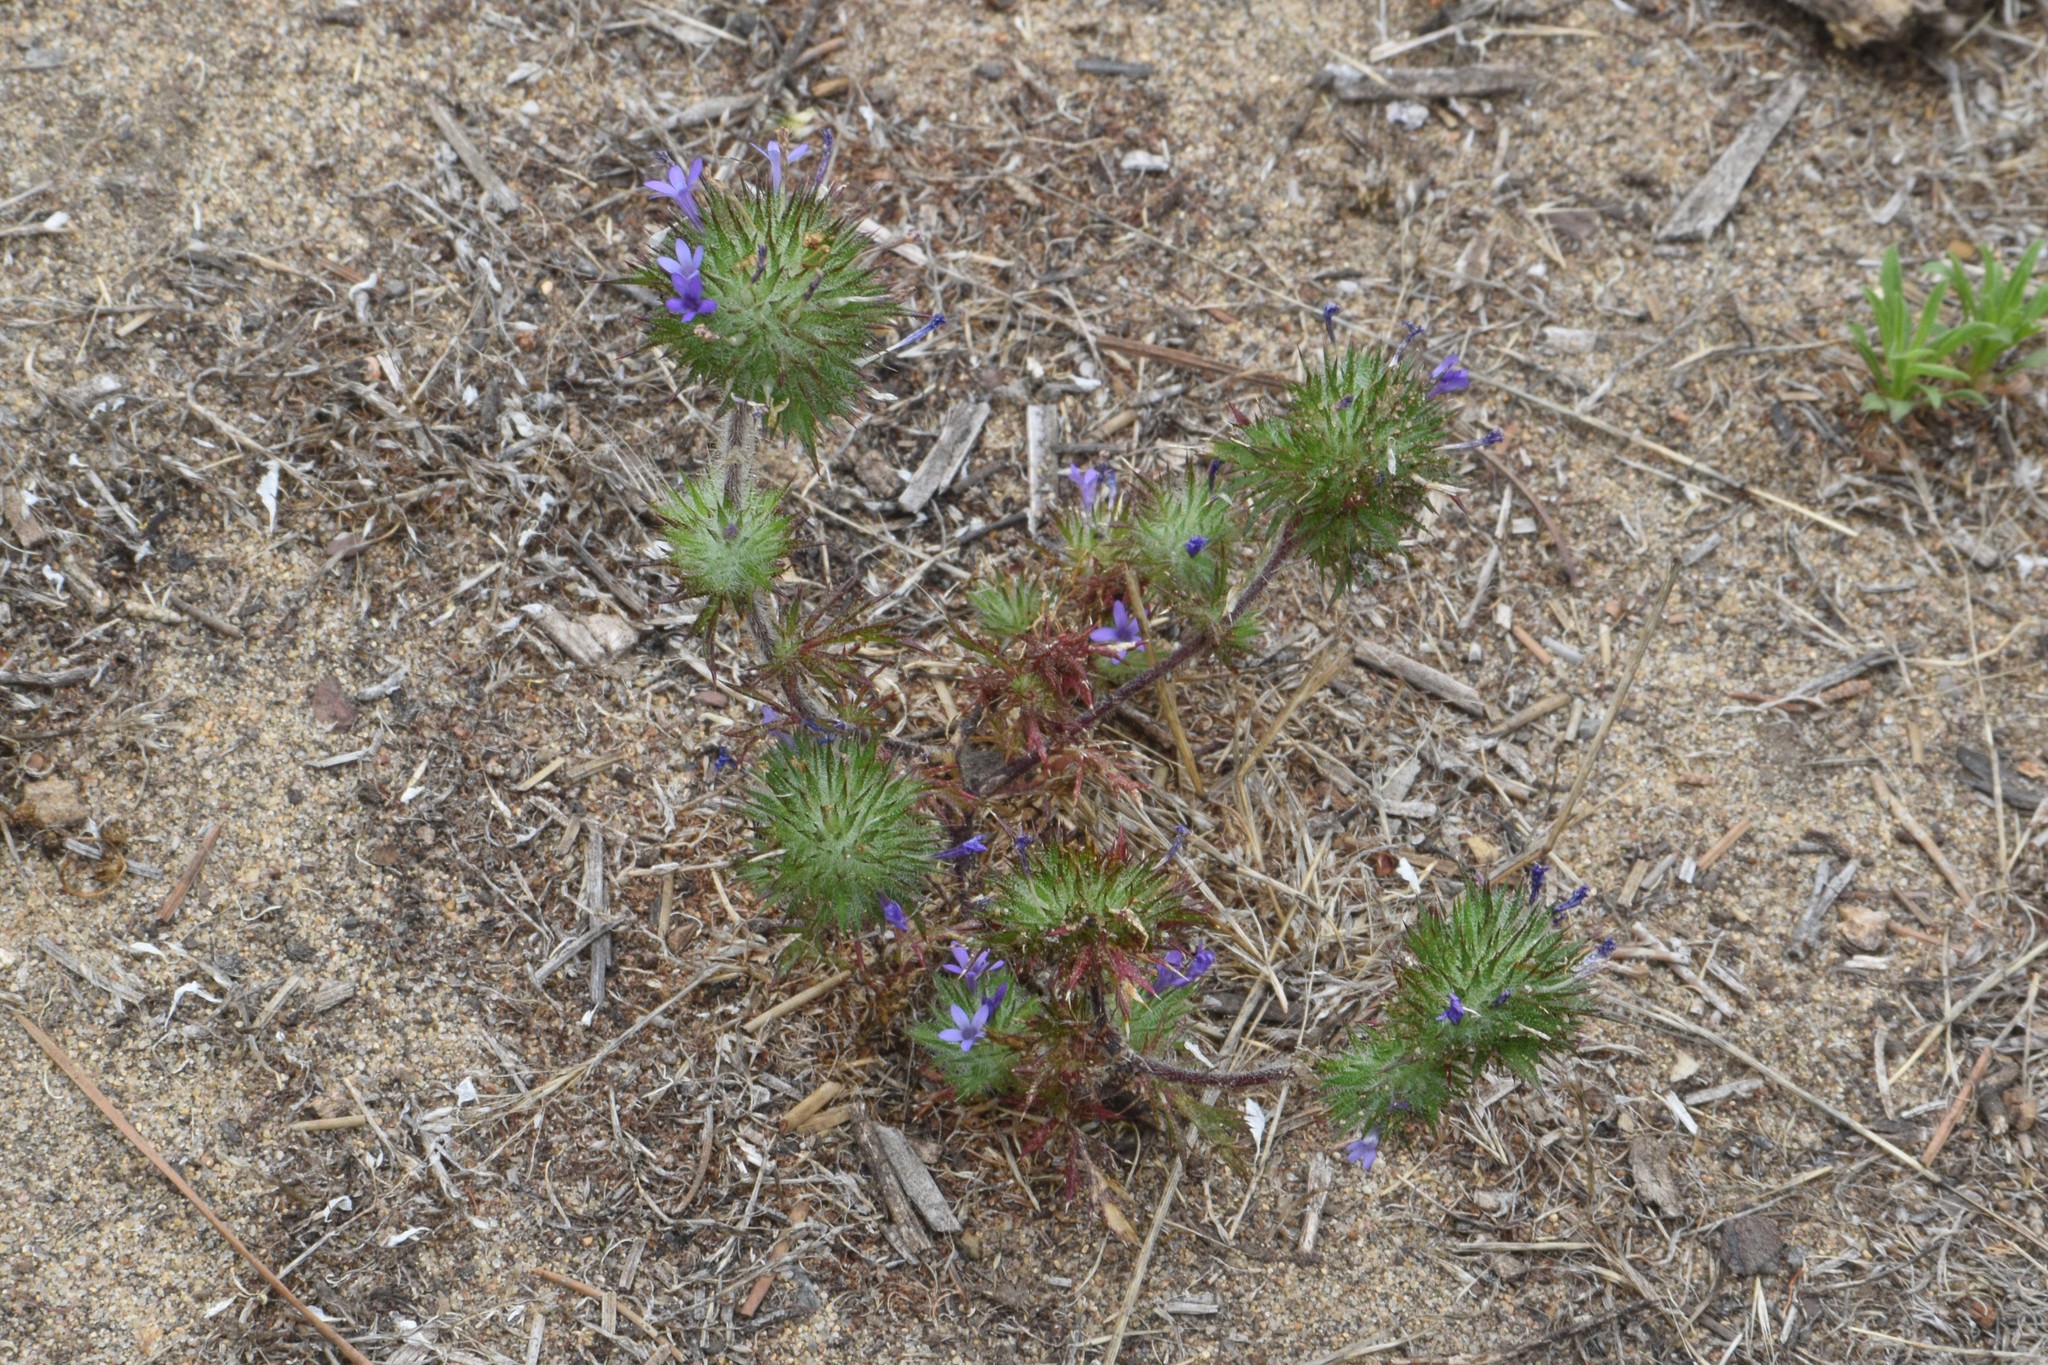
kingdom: Plantae
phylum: Tracheophyta
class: Magnoliopsida
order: Ericales
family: Polemoniaceae
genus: Navarretia
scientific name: Navarretia squarrosa
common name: Skunkweed
